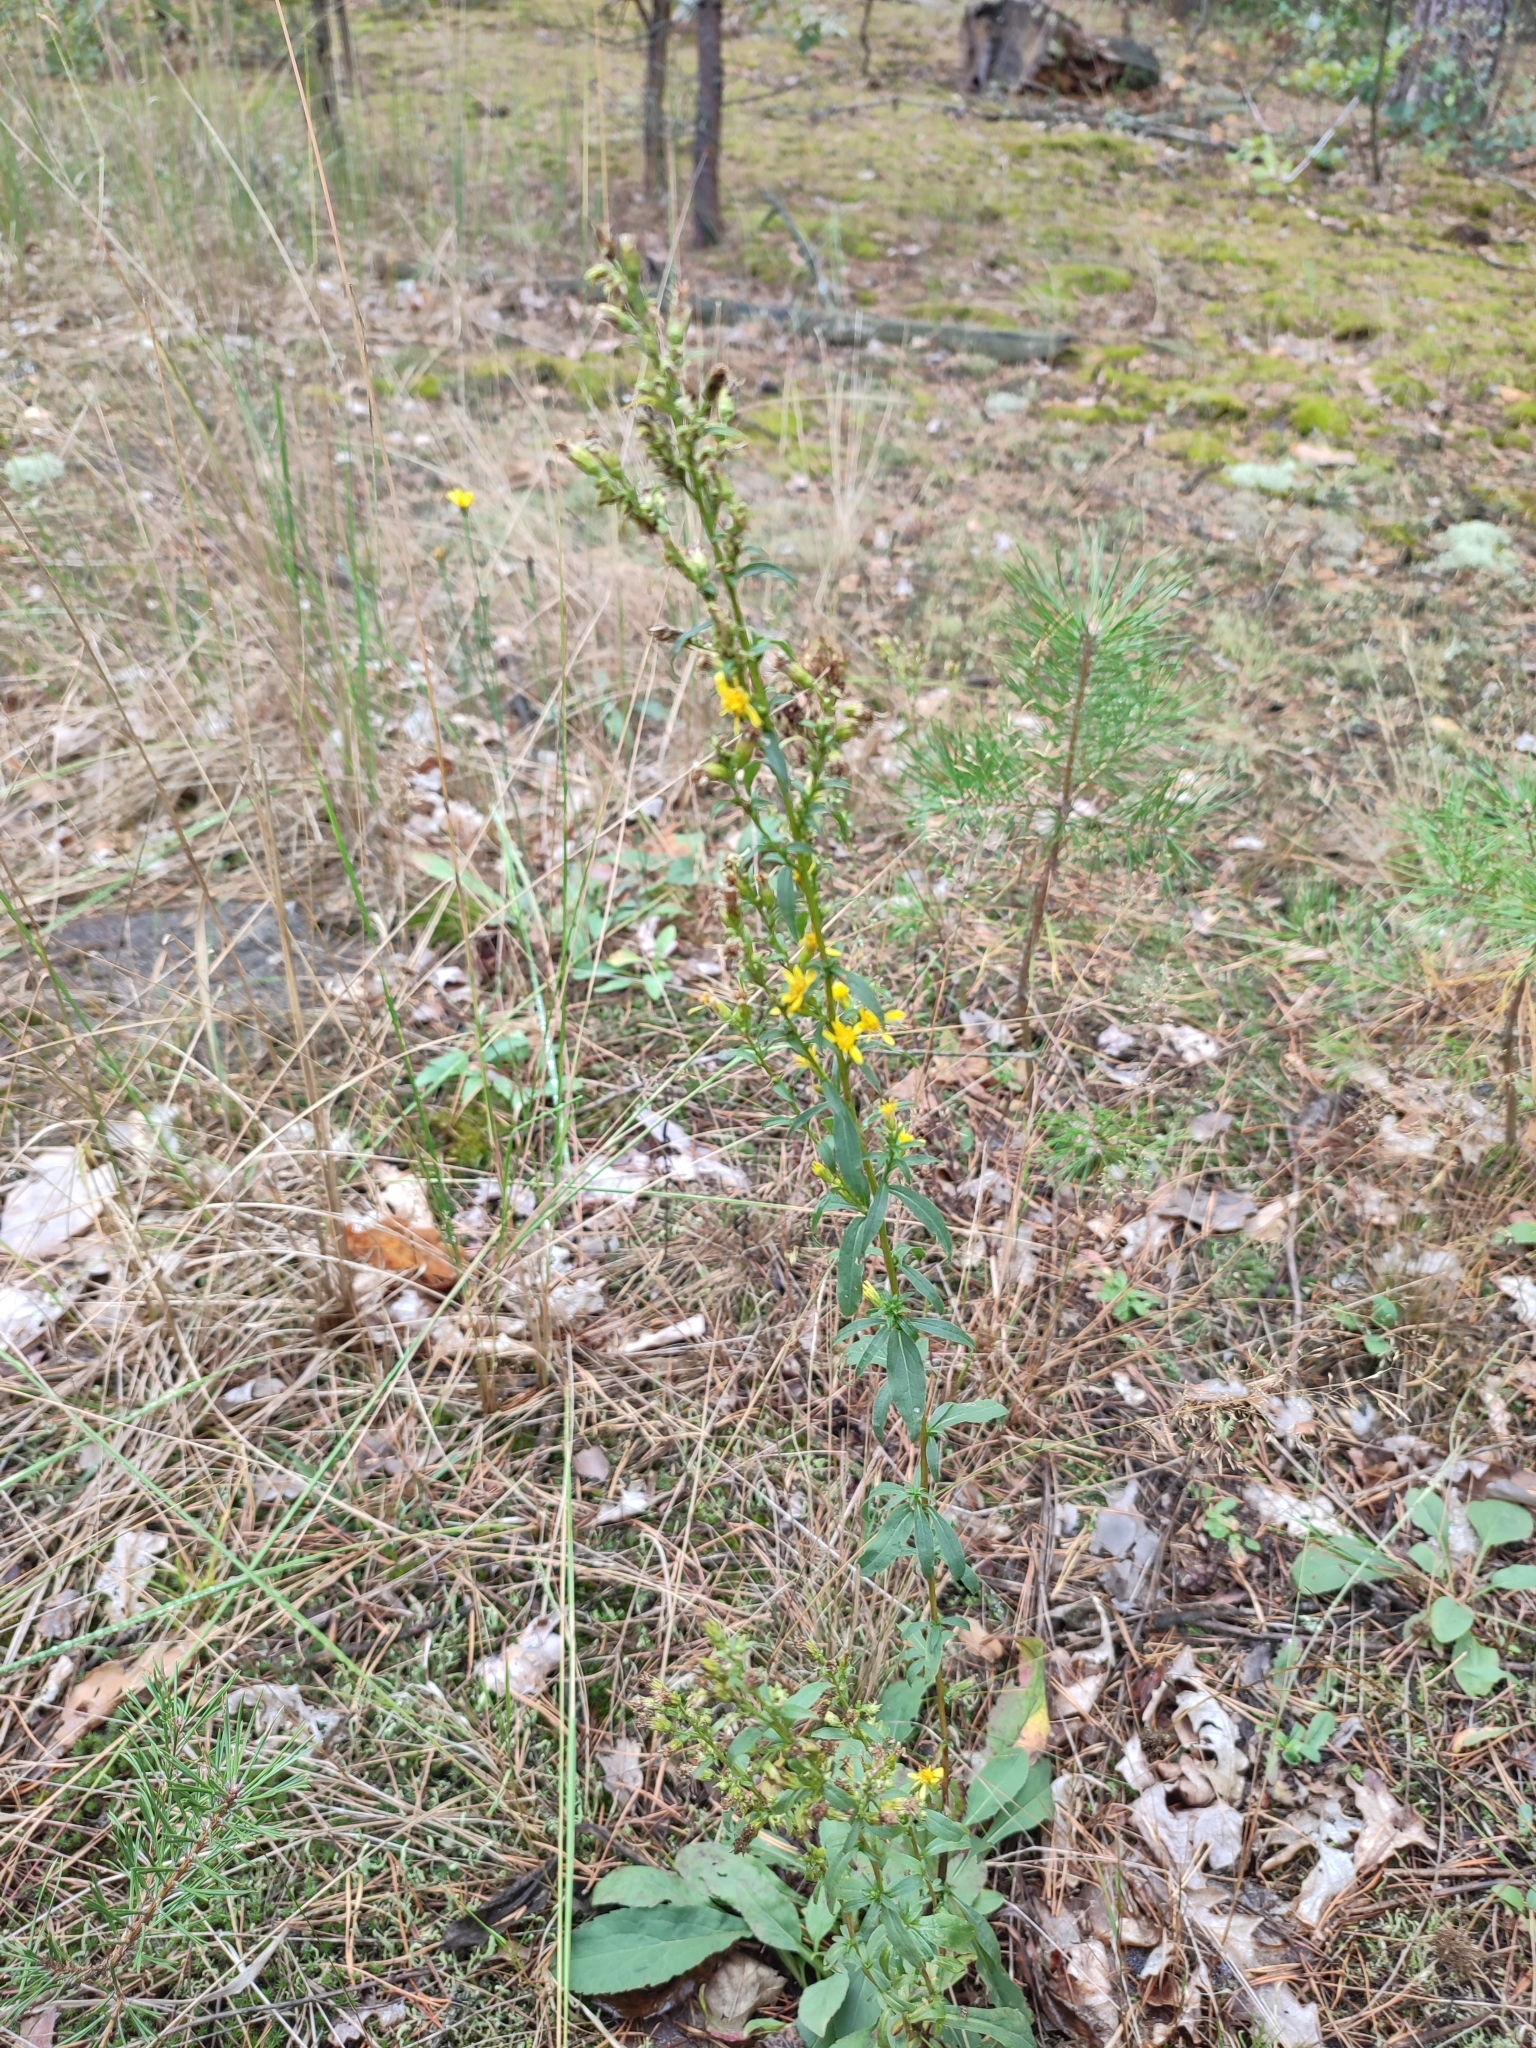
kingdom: Plantae
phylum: Tracheophyta
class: Magnoliopsida
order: Asterales
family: Asteraceae
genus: Solidago
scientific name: Solidago virgaurea
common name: Goldenrod
